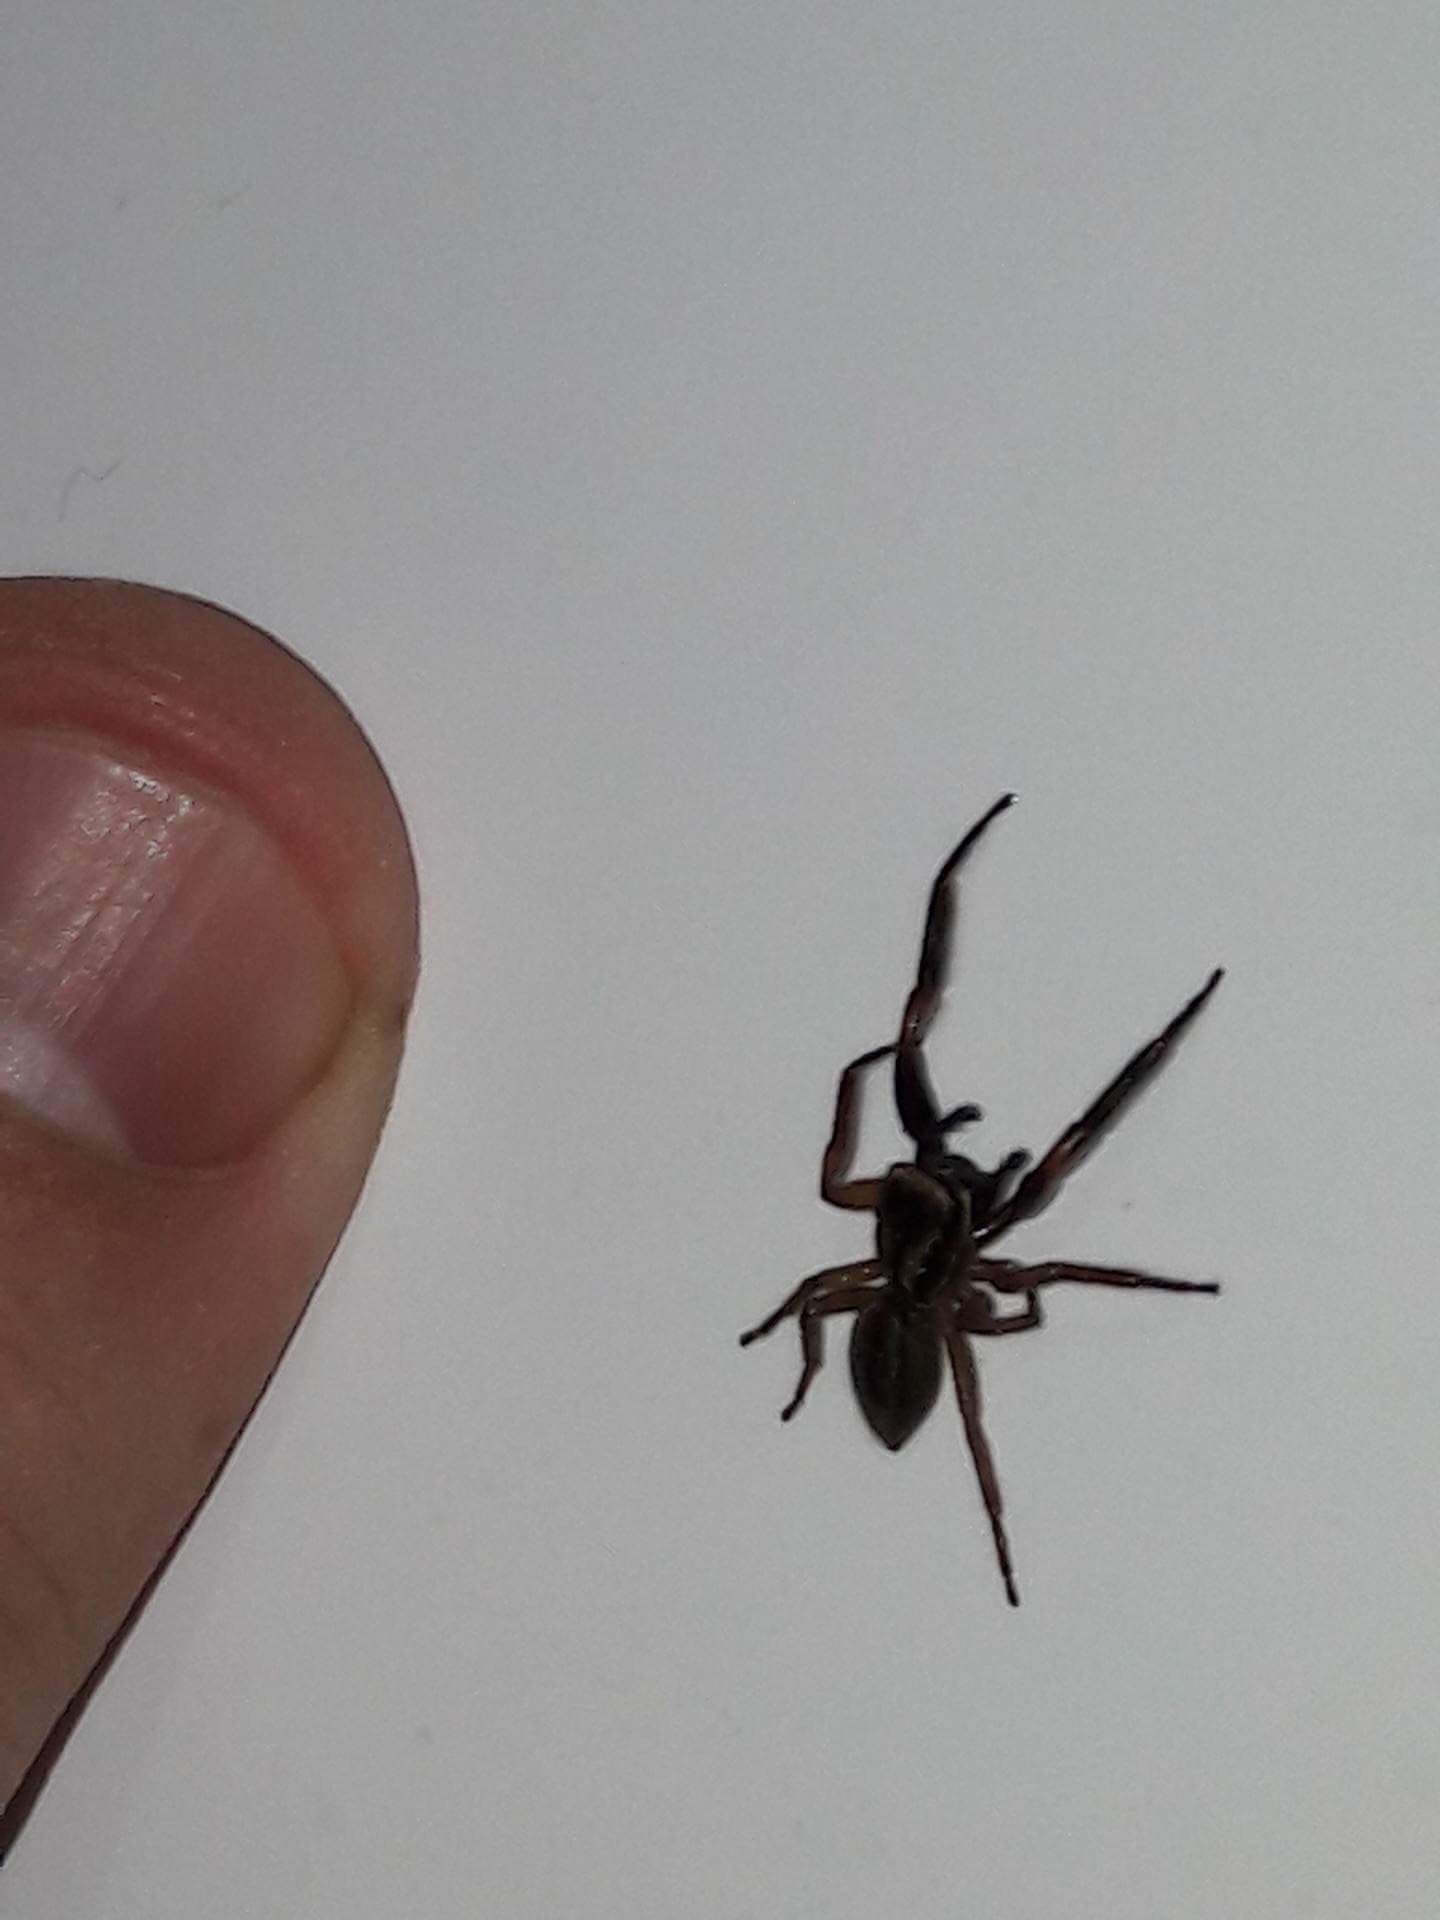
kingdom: Animalia
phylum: Arthropoda
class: Arachnida
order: Araneae
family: Salticidae
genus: Trite
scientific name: Trite auricoma
